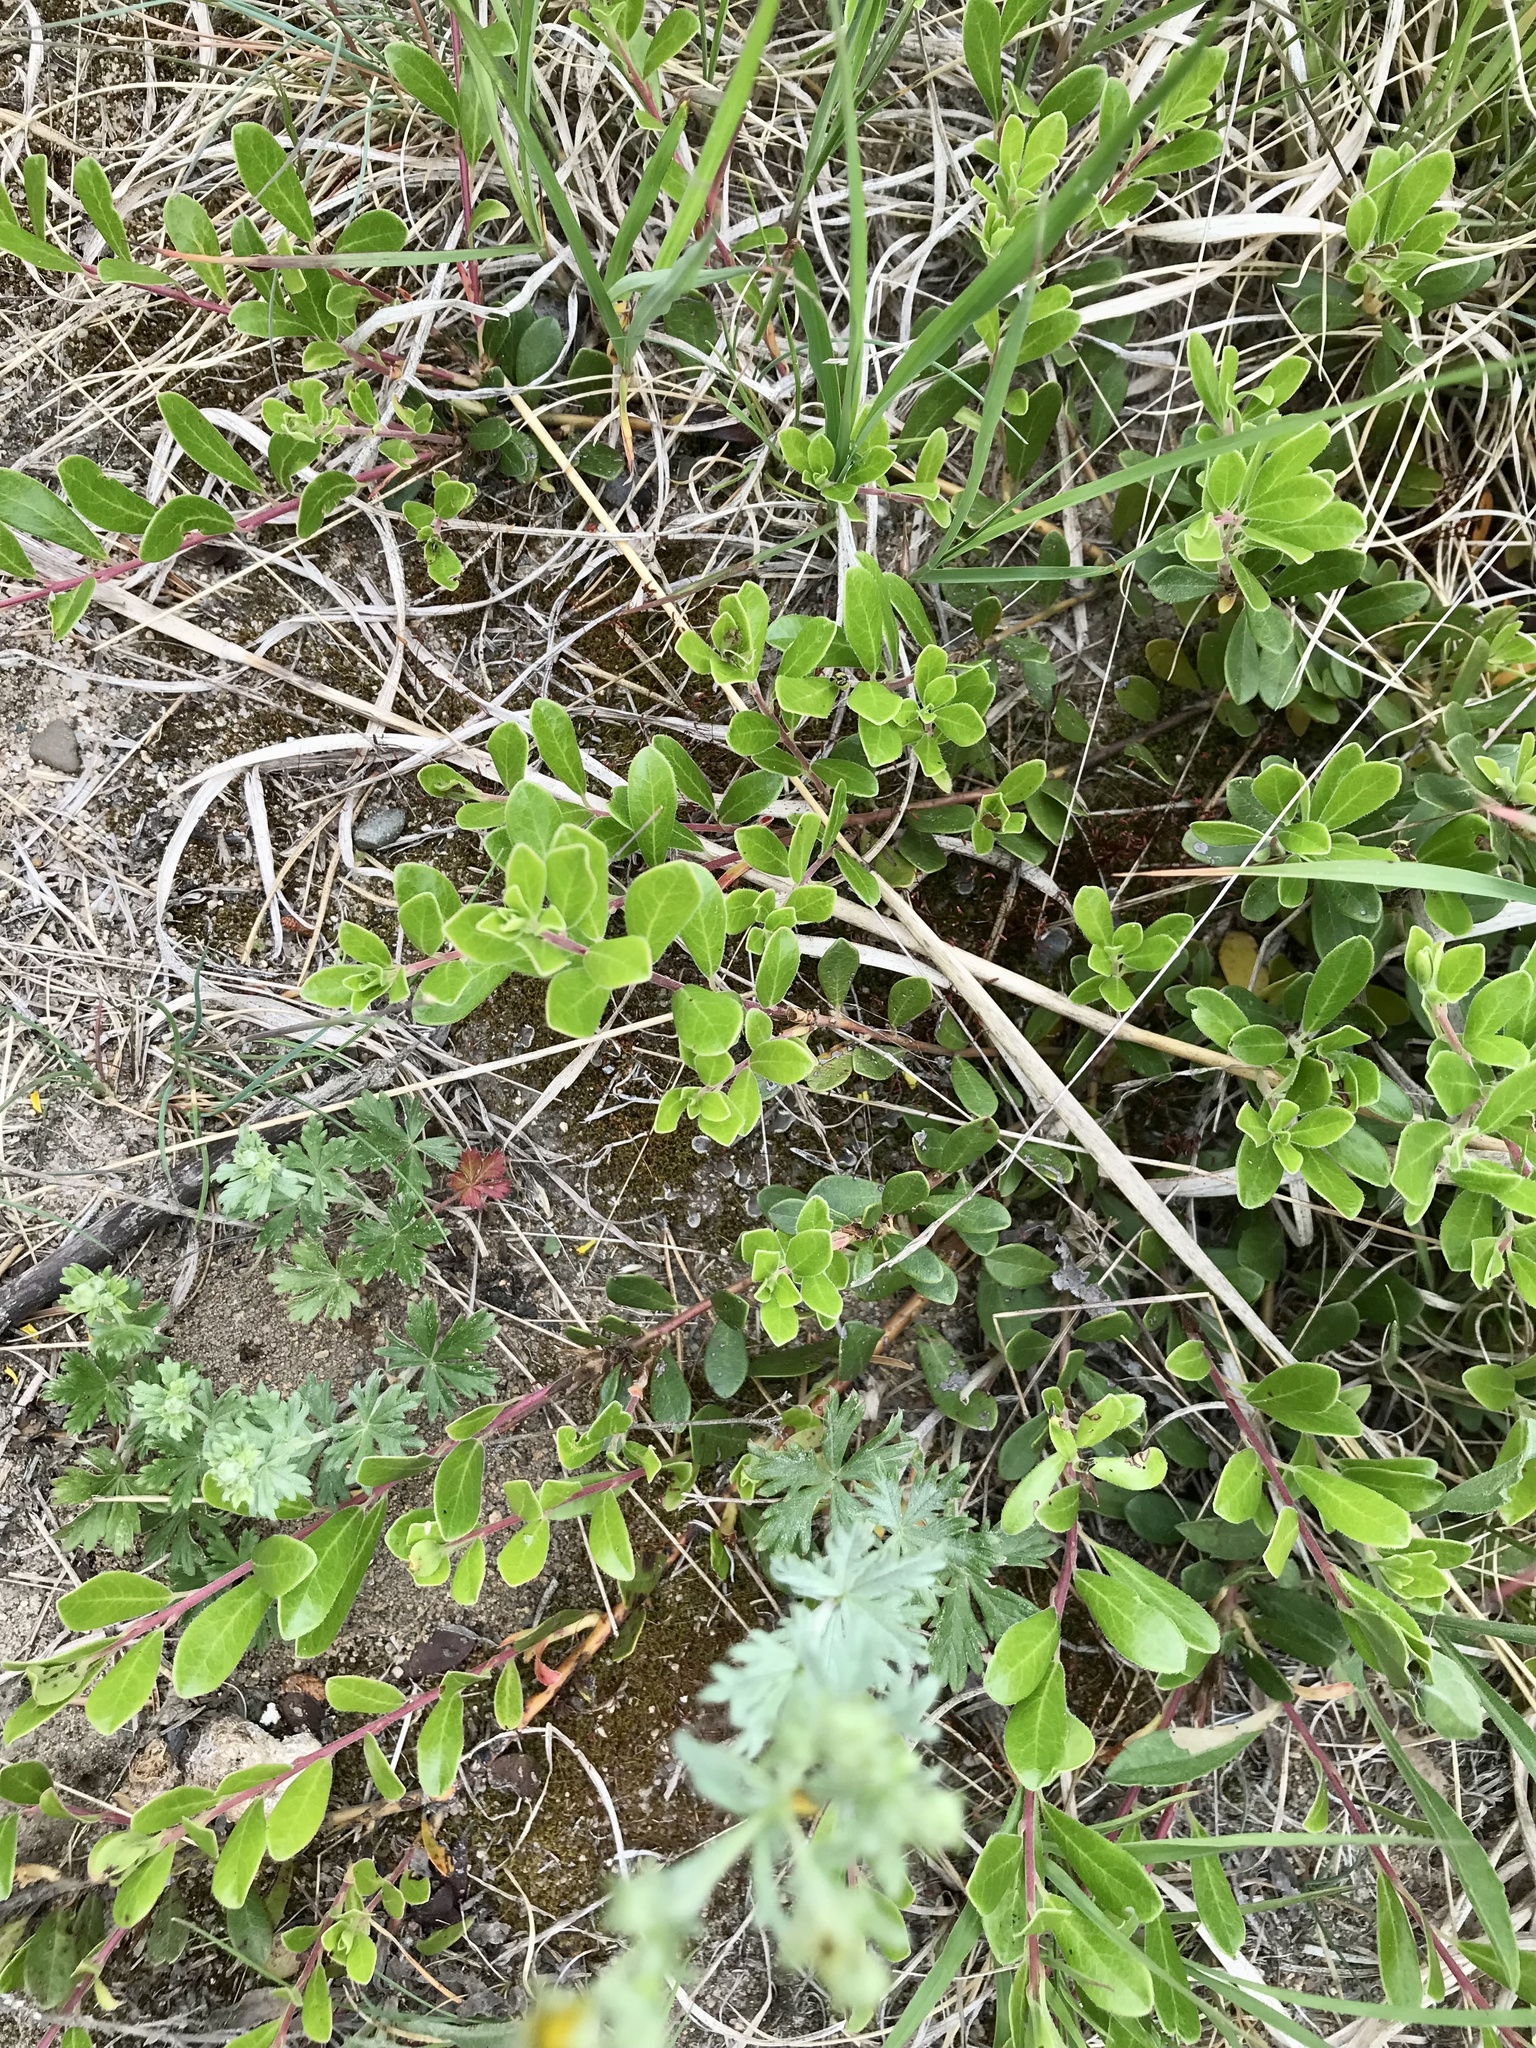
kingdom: Plantae
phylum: Tracheophyta
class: Magnoliopsida
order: Ericales
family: Ericaceae
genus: Arctostaphylos
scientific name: Arctostaphylos uva-ursi
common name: Bearberry
